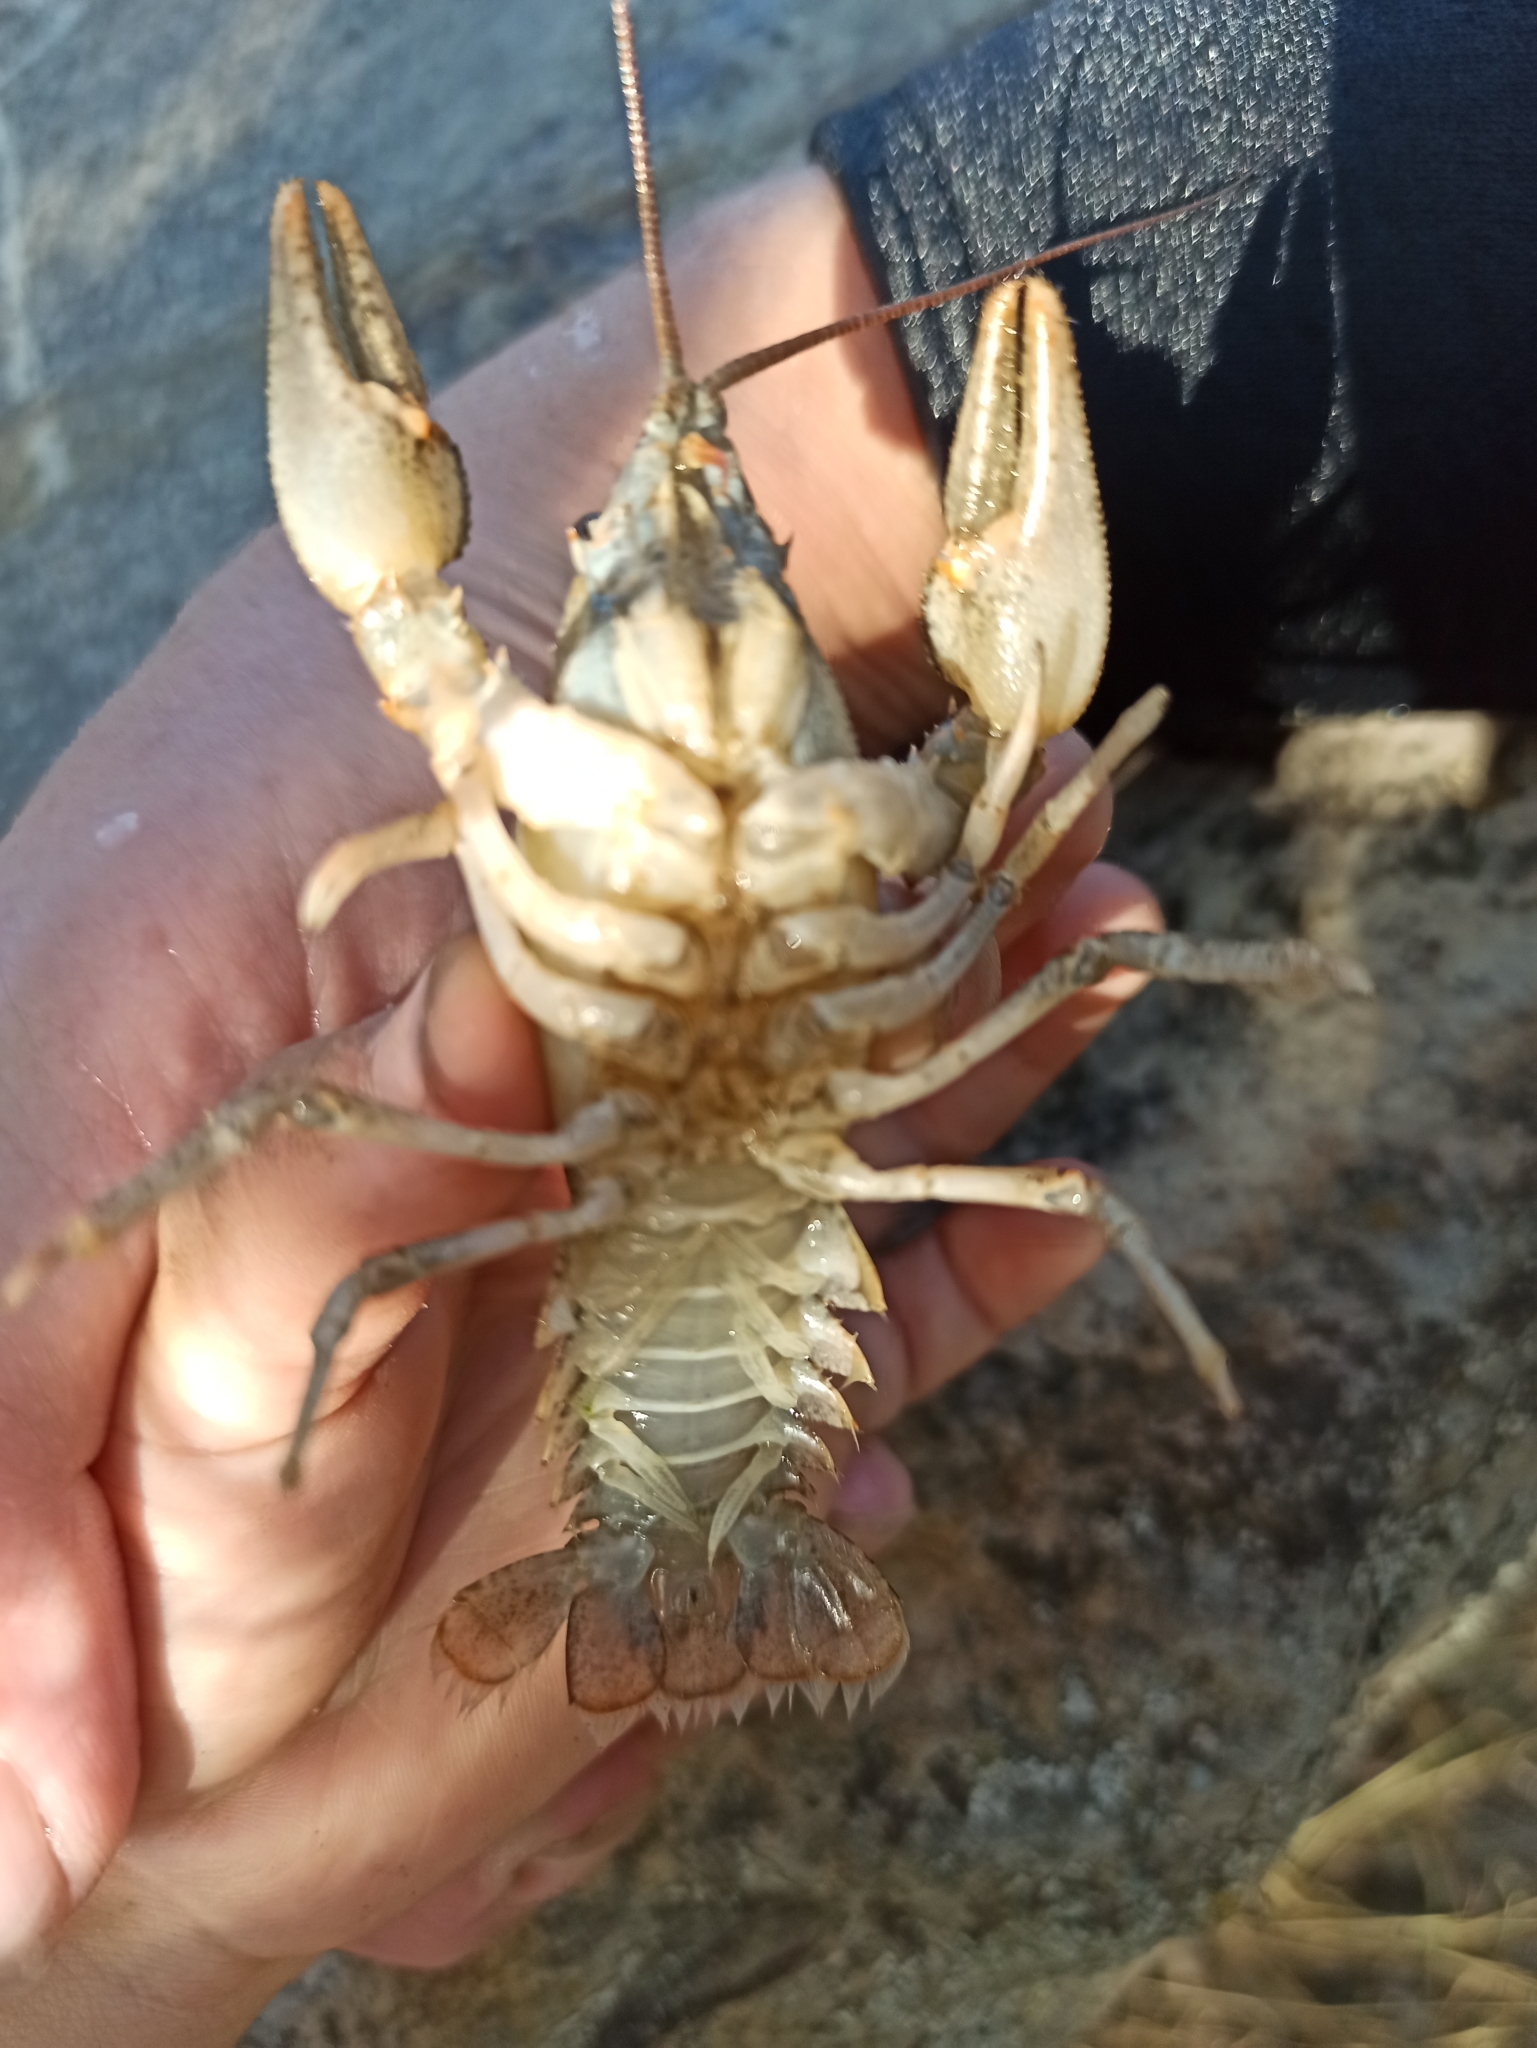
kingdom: Animalia
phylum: Arthropoda
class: Malacostraca
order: Decapoda
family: Astacidae
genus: Pontastacus
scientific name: Pontastacus leptodactylus
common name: Danube crayfish
